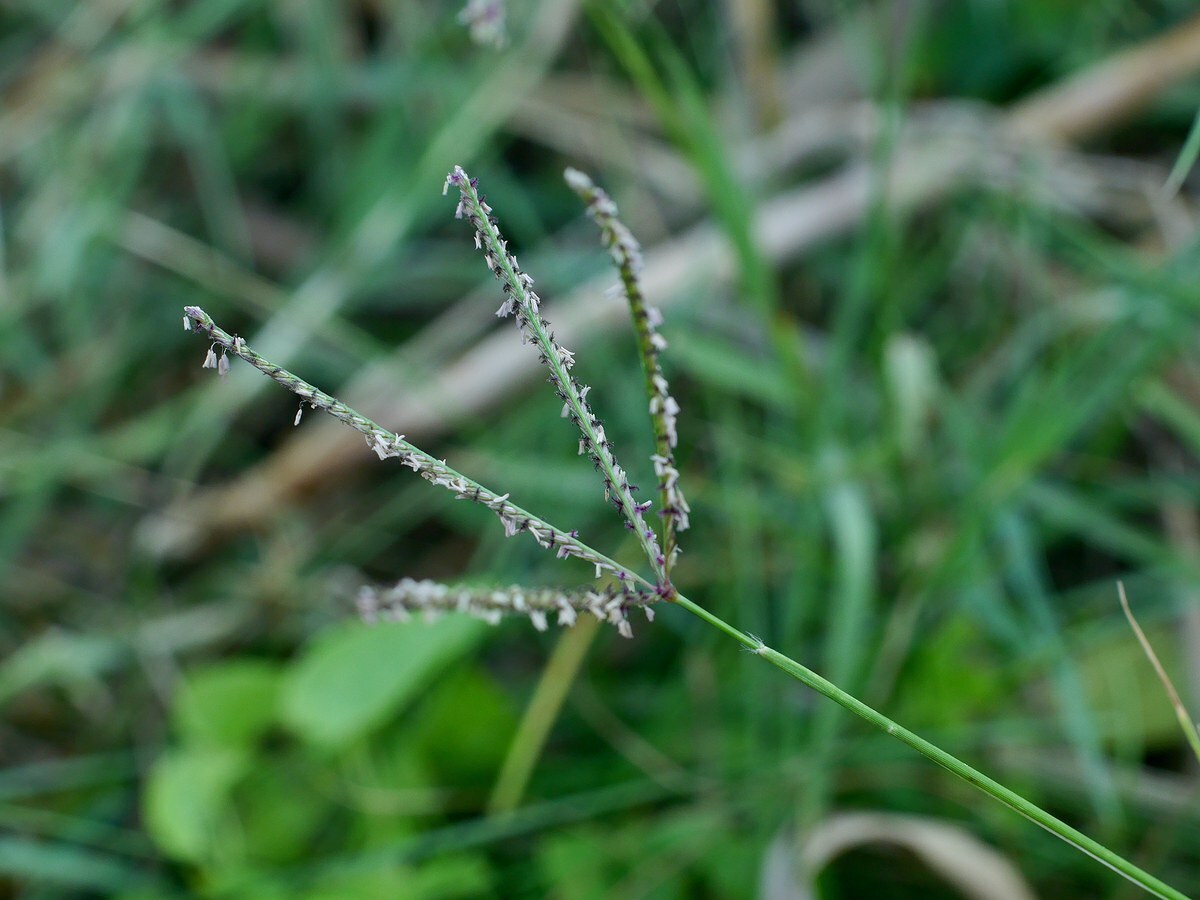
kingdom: Plantae
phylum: Tracheophyta
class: Liliopsida
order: Poales
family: Poaceae
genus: Cynodon
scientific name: Cynodon dactylon
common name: Bermuda grass
